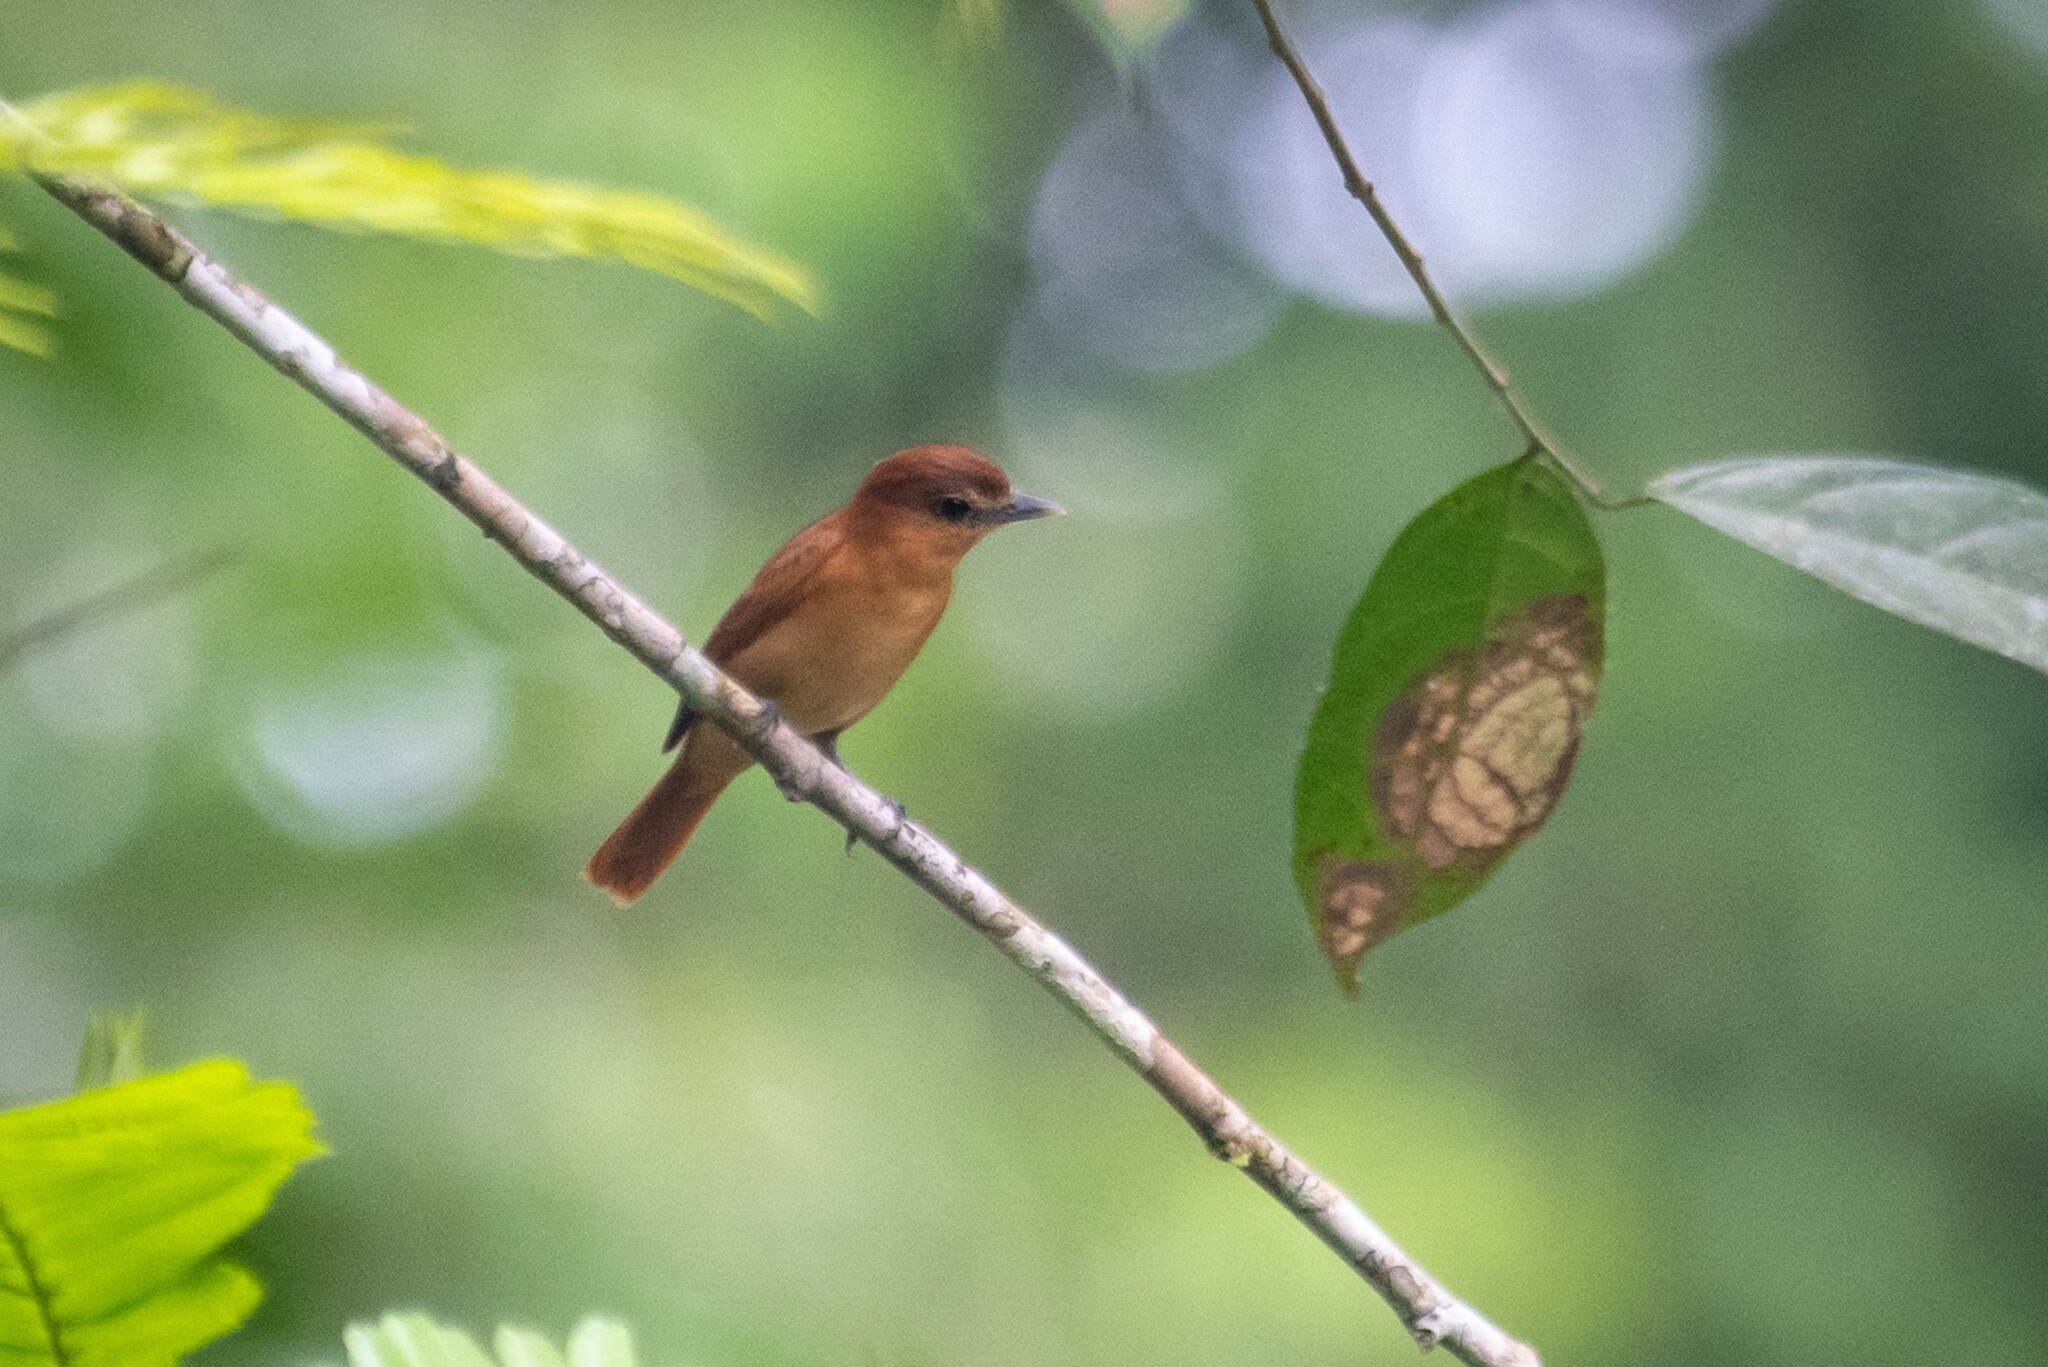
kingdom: Animalia
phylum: Chordata
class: Aves
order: Passeriformes
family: Cotingidae
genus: Pachyramphus
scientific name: Pachyramphus cinnamomeus
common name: Cinnamon becard
